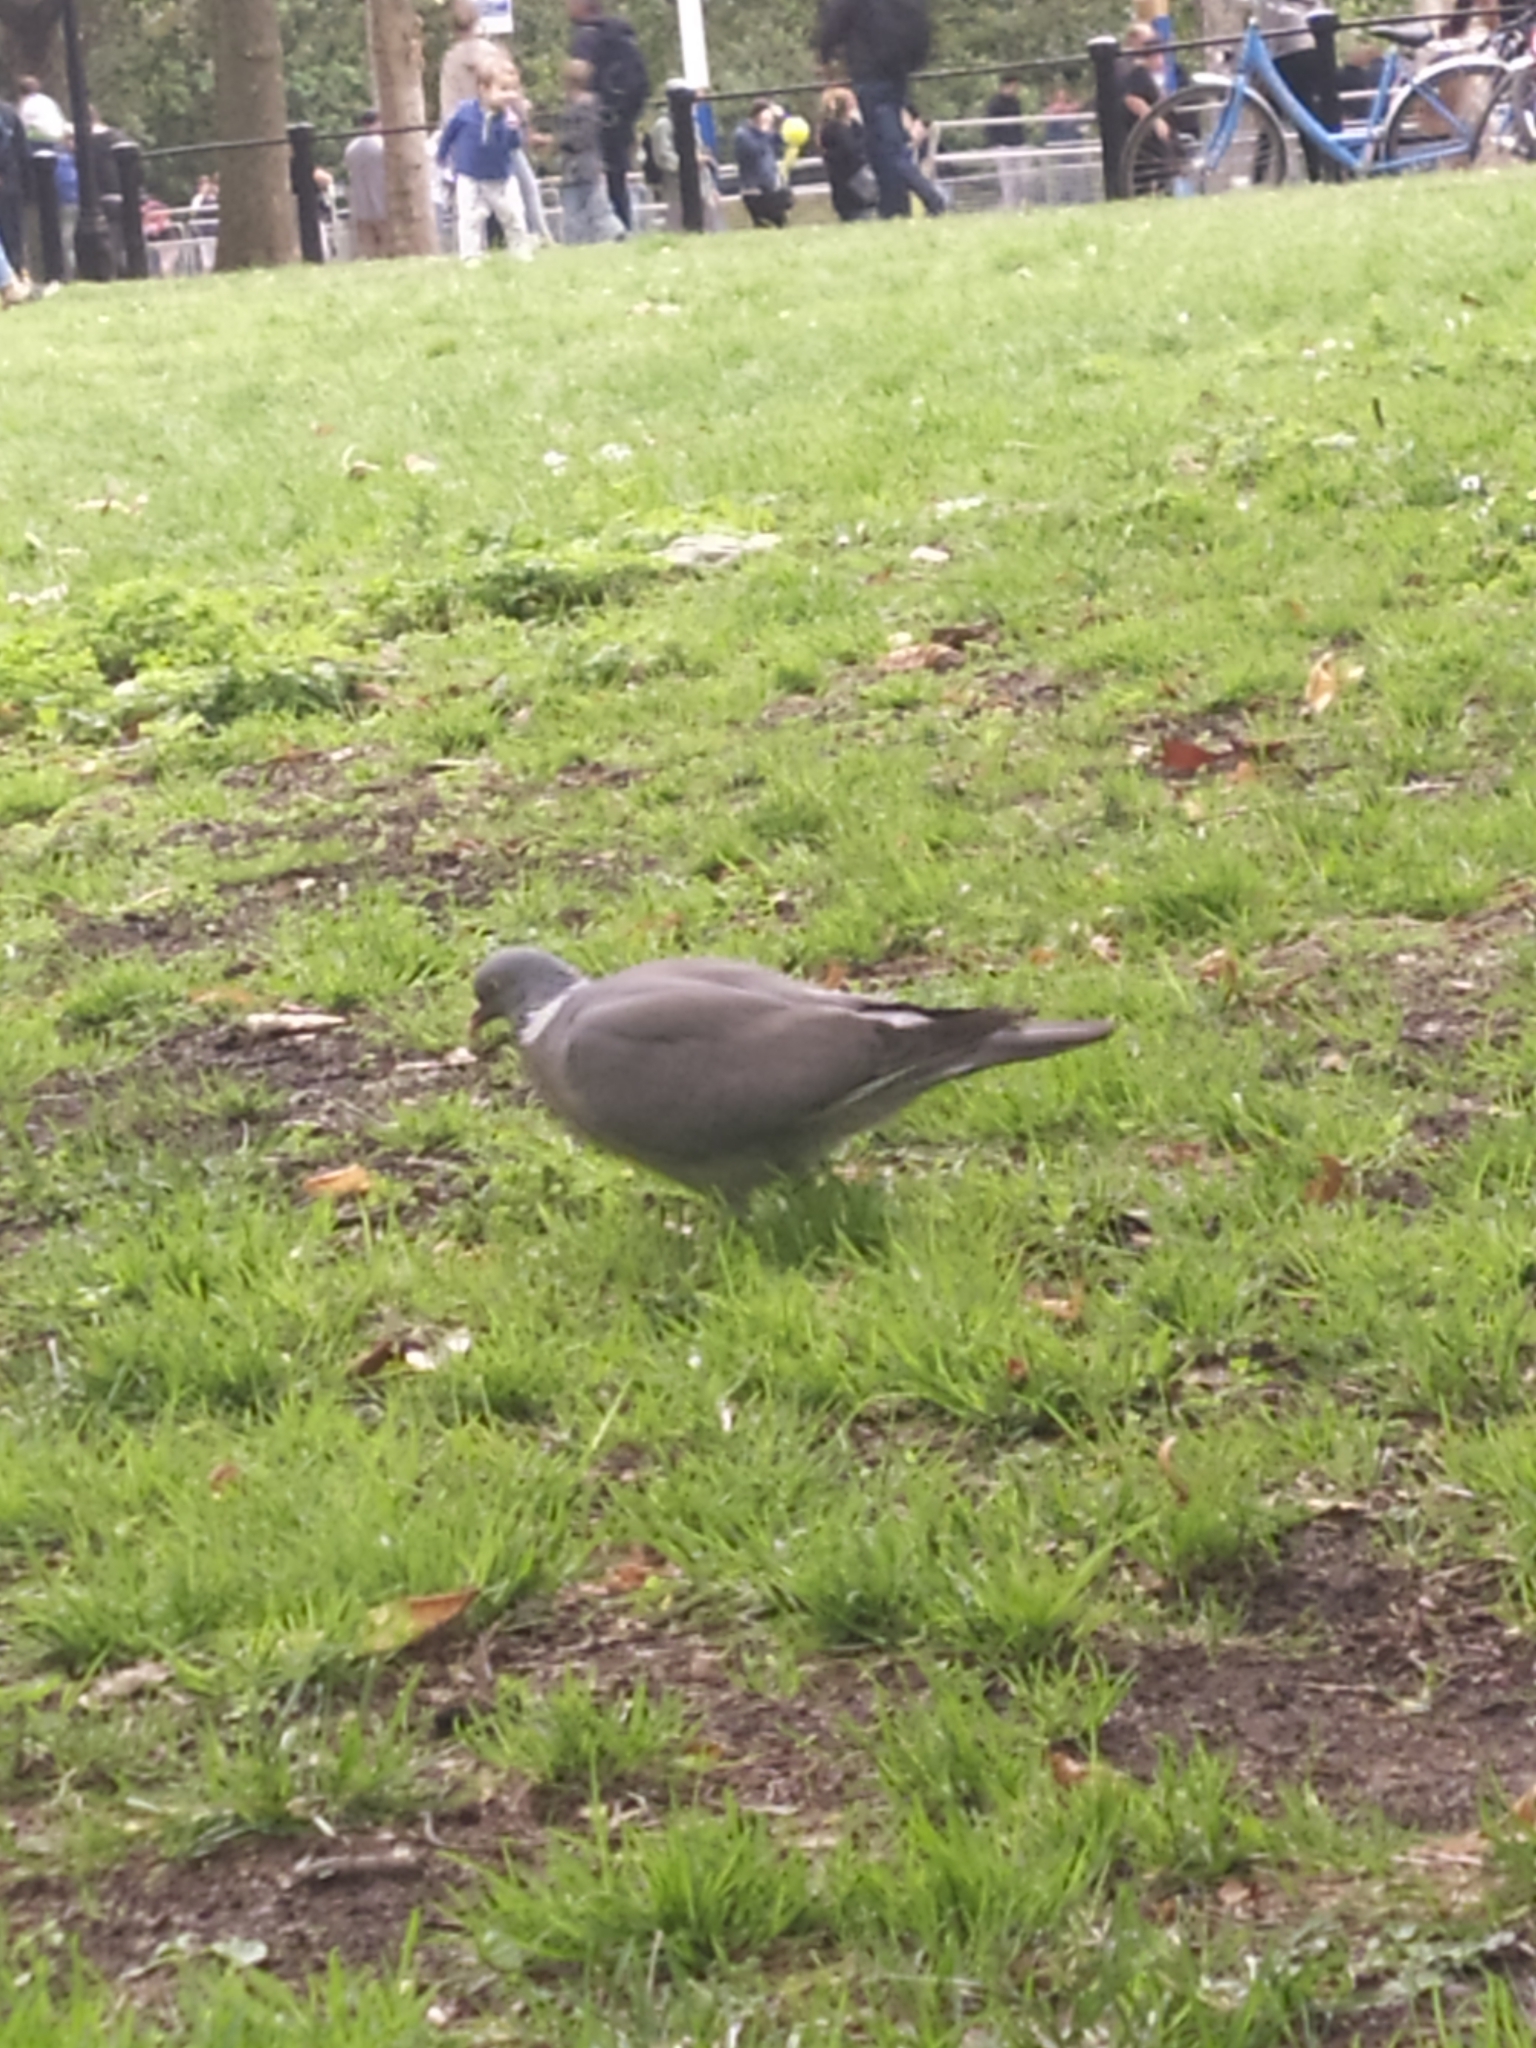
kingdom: Animalia
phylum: Chordata
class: Aves
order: Columbiformes
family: Columbidae
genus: Columba
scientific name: Columba palumbus
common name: Common wood pigeon
